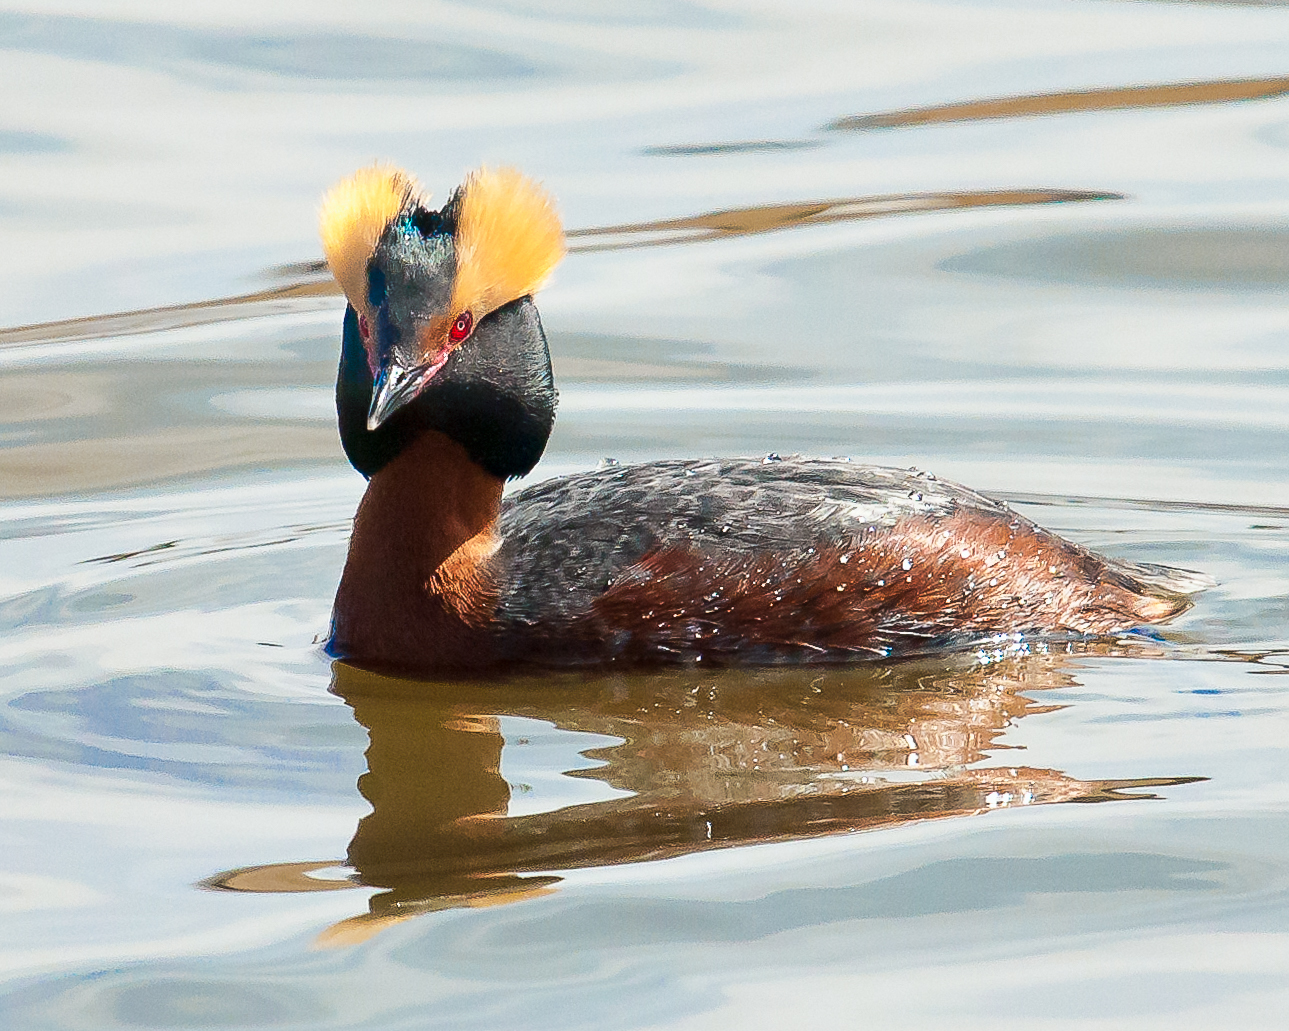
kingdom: Animalia
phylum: Chordata
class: Aves
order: Podicipediformes
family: Podicipedidae
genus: Podiceps
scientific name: Podiceps auritus
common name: Horned grebe
